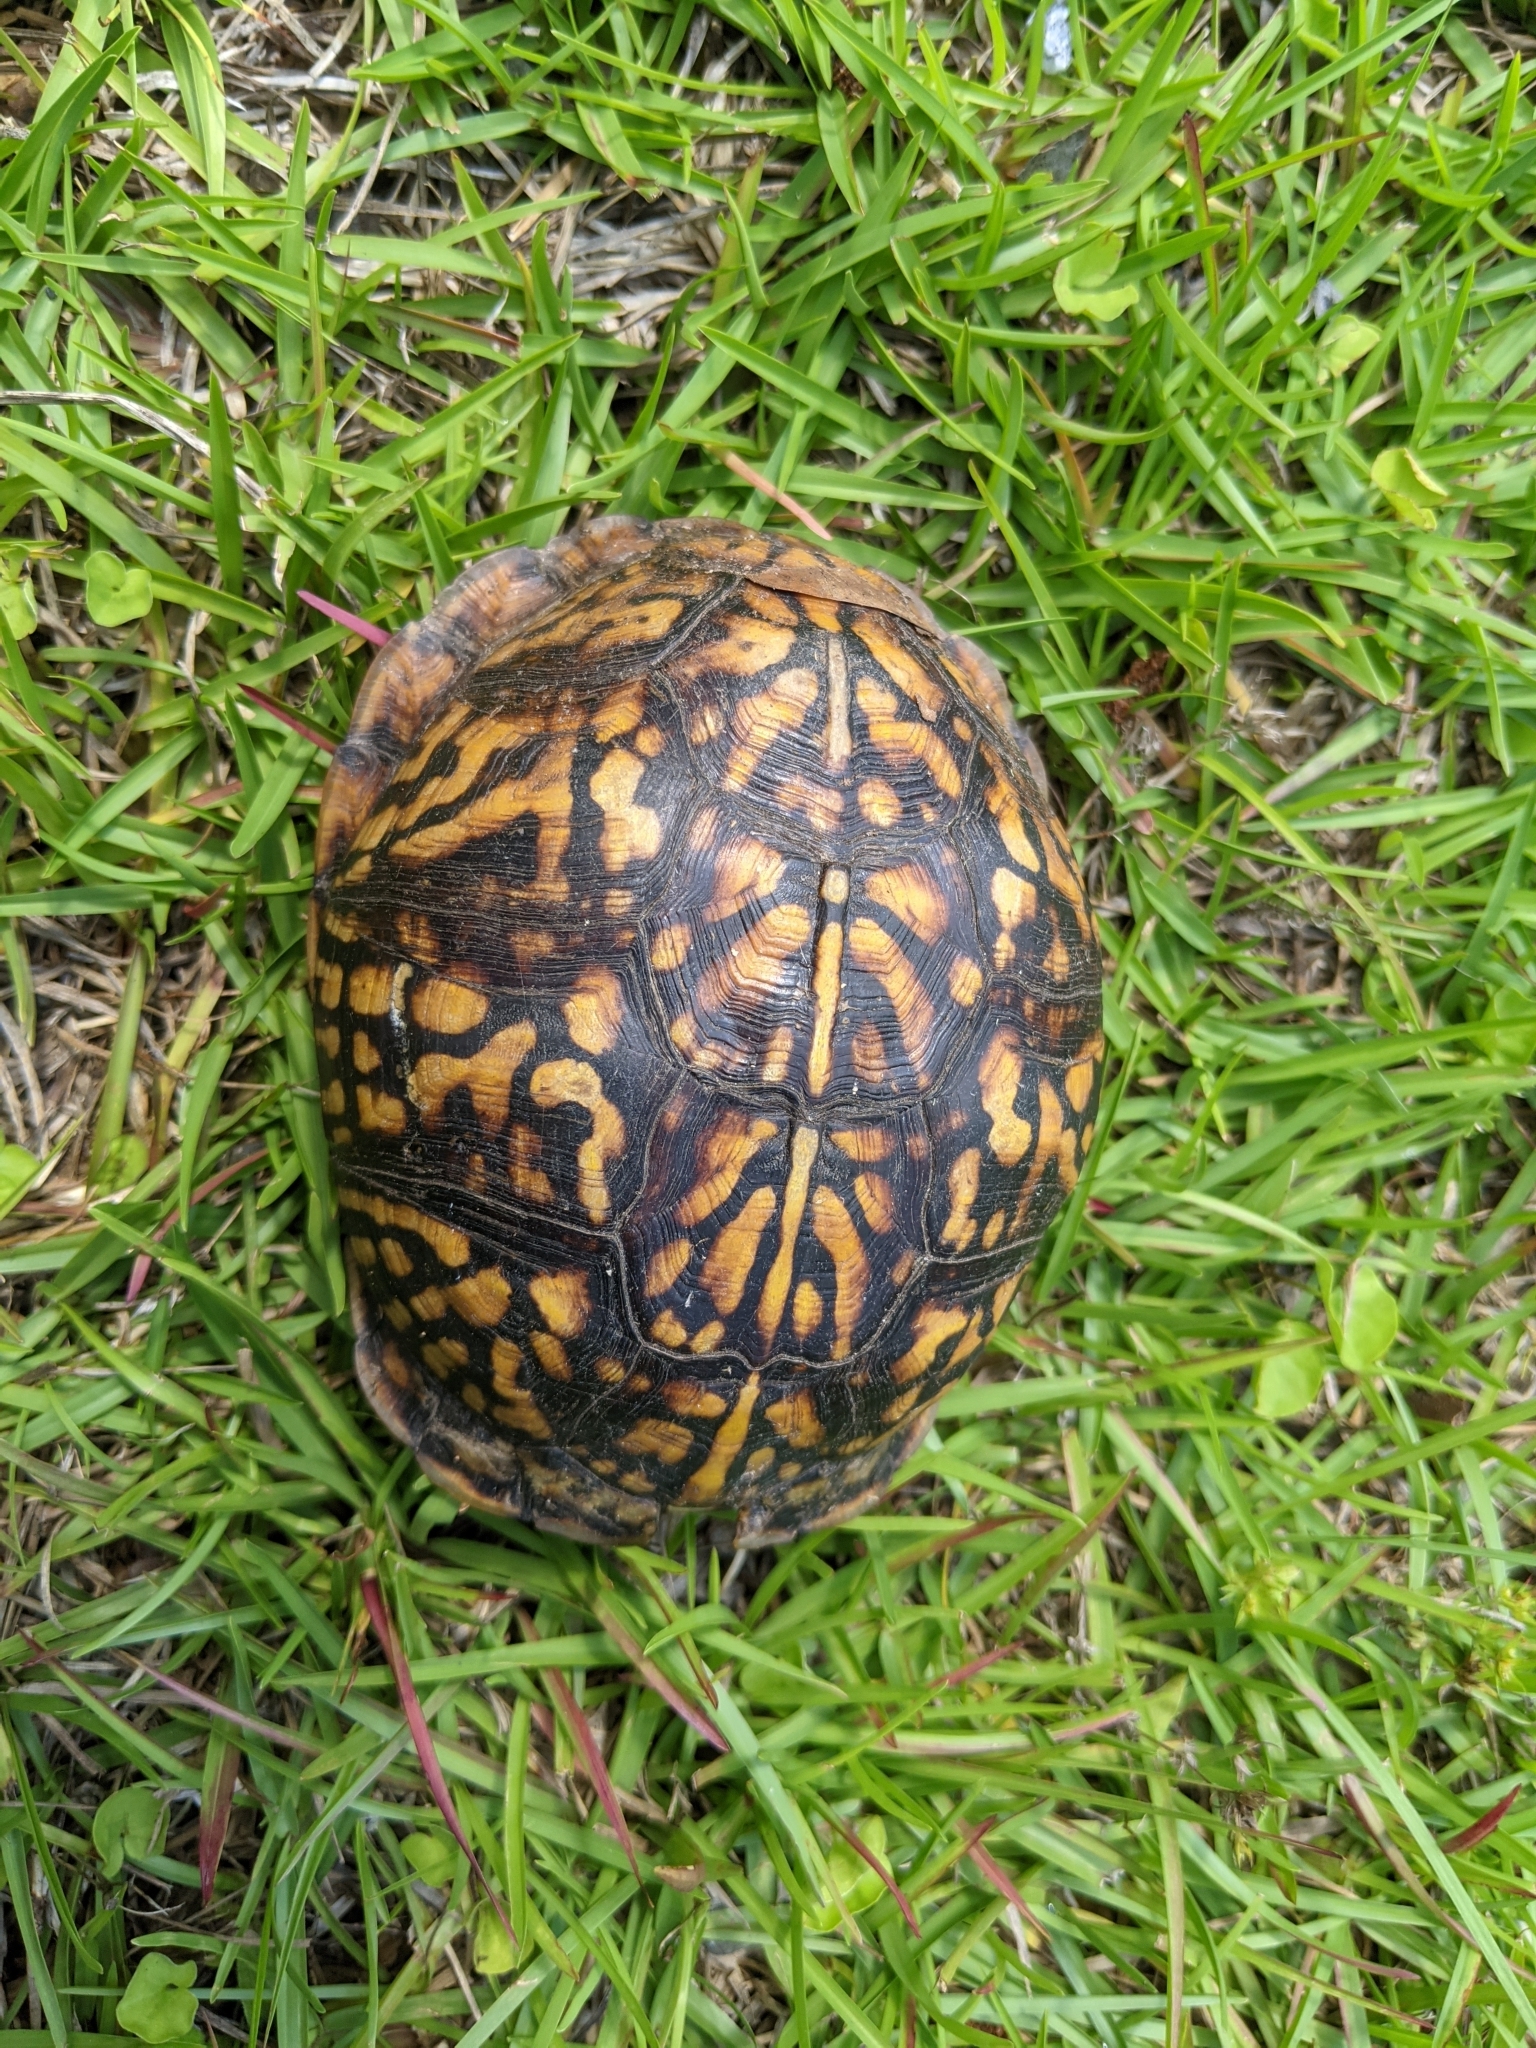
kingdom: Animalia
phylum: Chordata
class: Testudines
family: Emydidae
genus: Terrapene
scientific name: Terrapene carolina
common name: Common box turtle
